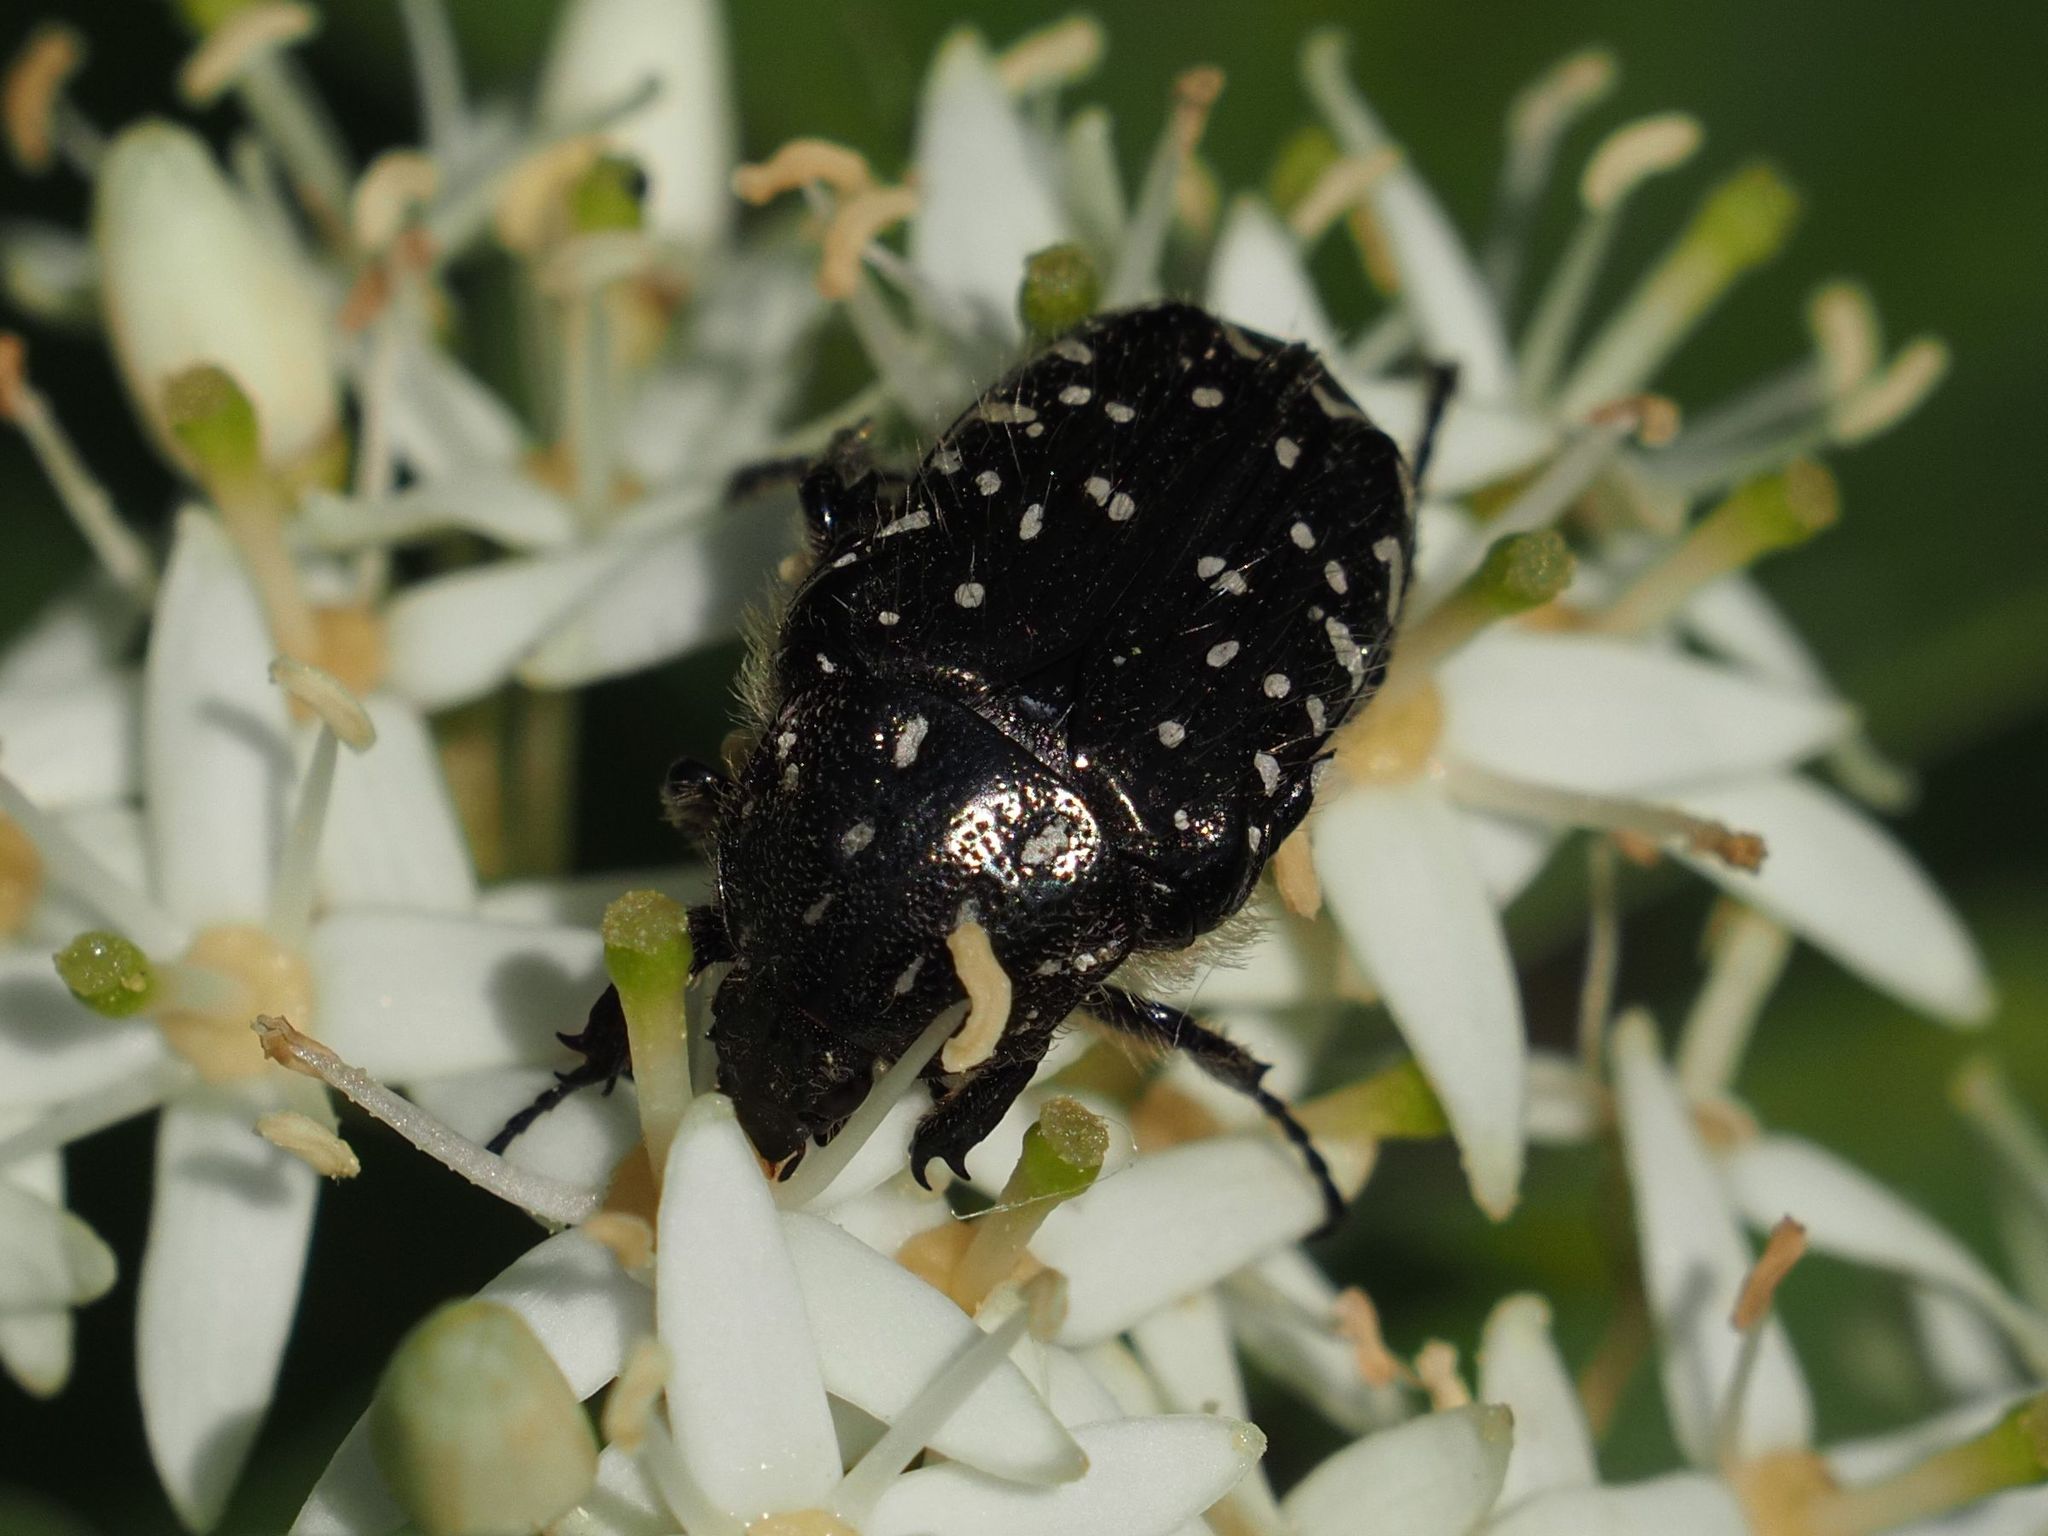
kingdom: Animalia
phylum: Arthropoda
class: Insecta
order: Coleoptera
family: Scarabaeidae
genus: Oxythyrea
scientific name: Oxythyrea funesta
